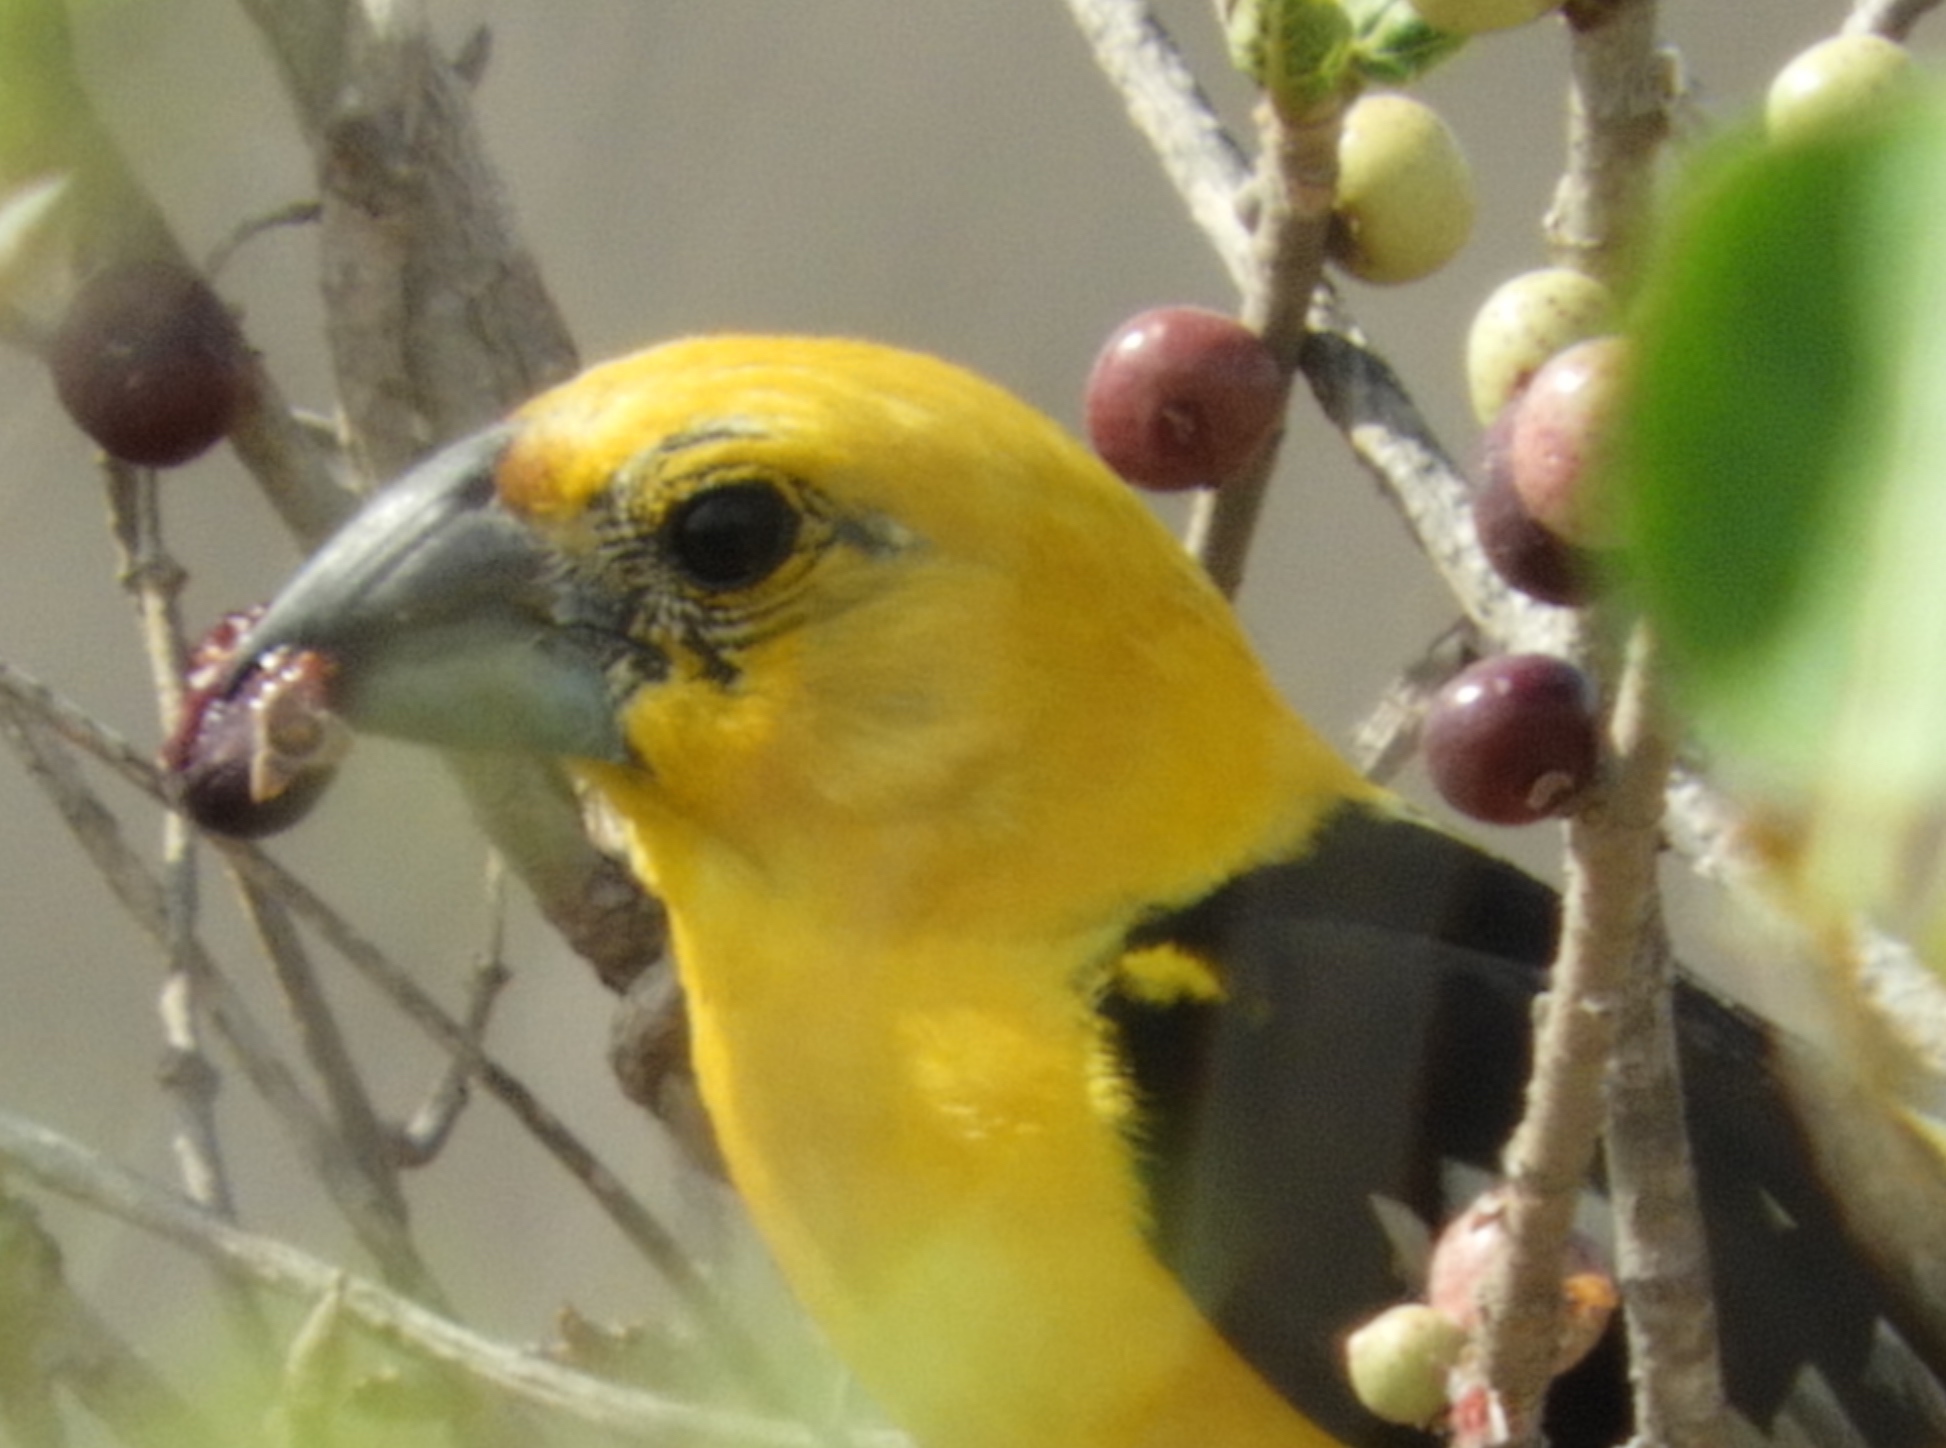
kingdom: Animalia
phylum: Chordata
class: Aves
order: Passeriformes
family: Cardinalidae
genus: Pheucticus
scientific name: Pheucticus chrysopeplus
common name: Yellow grosbeak
